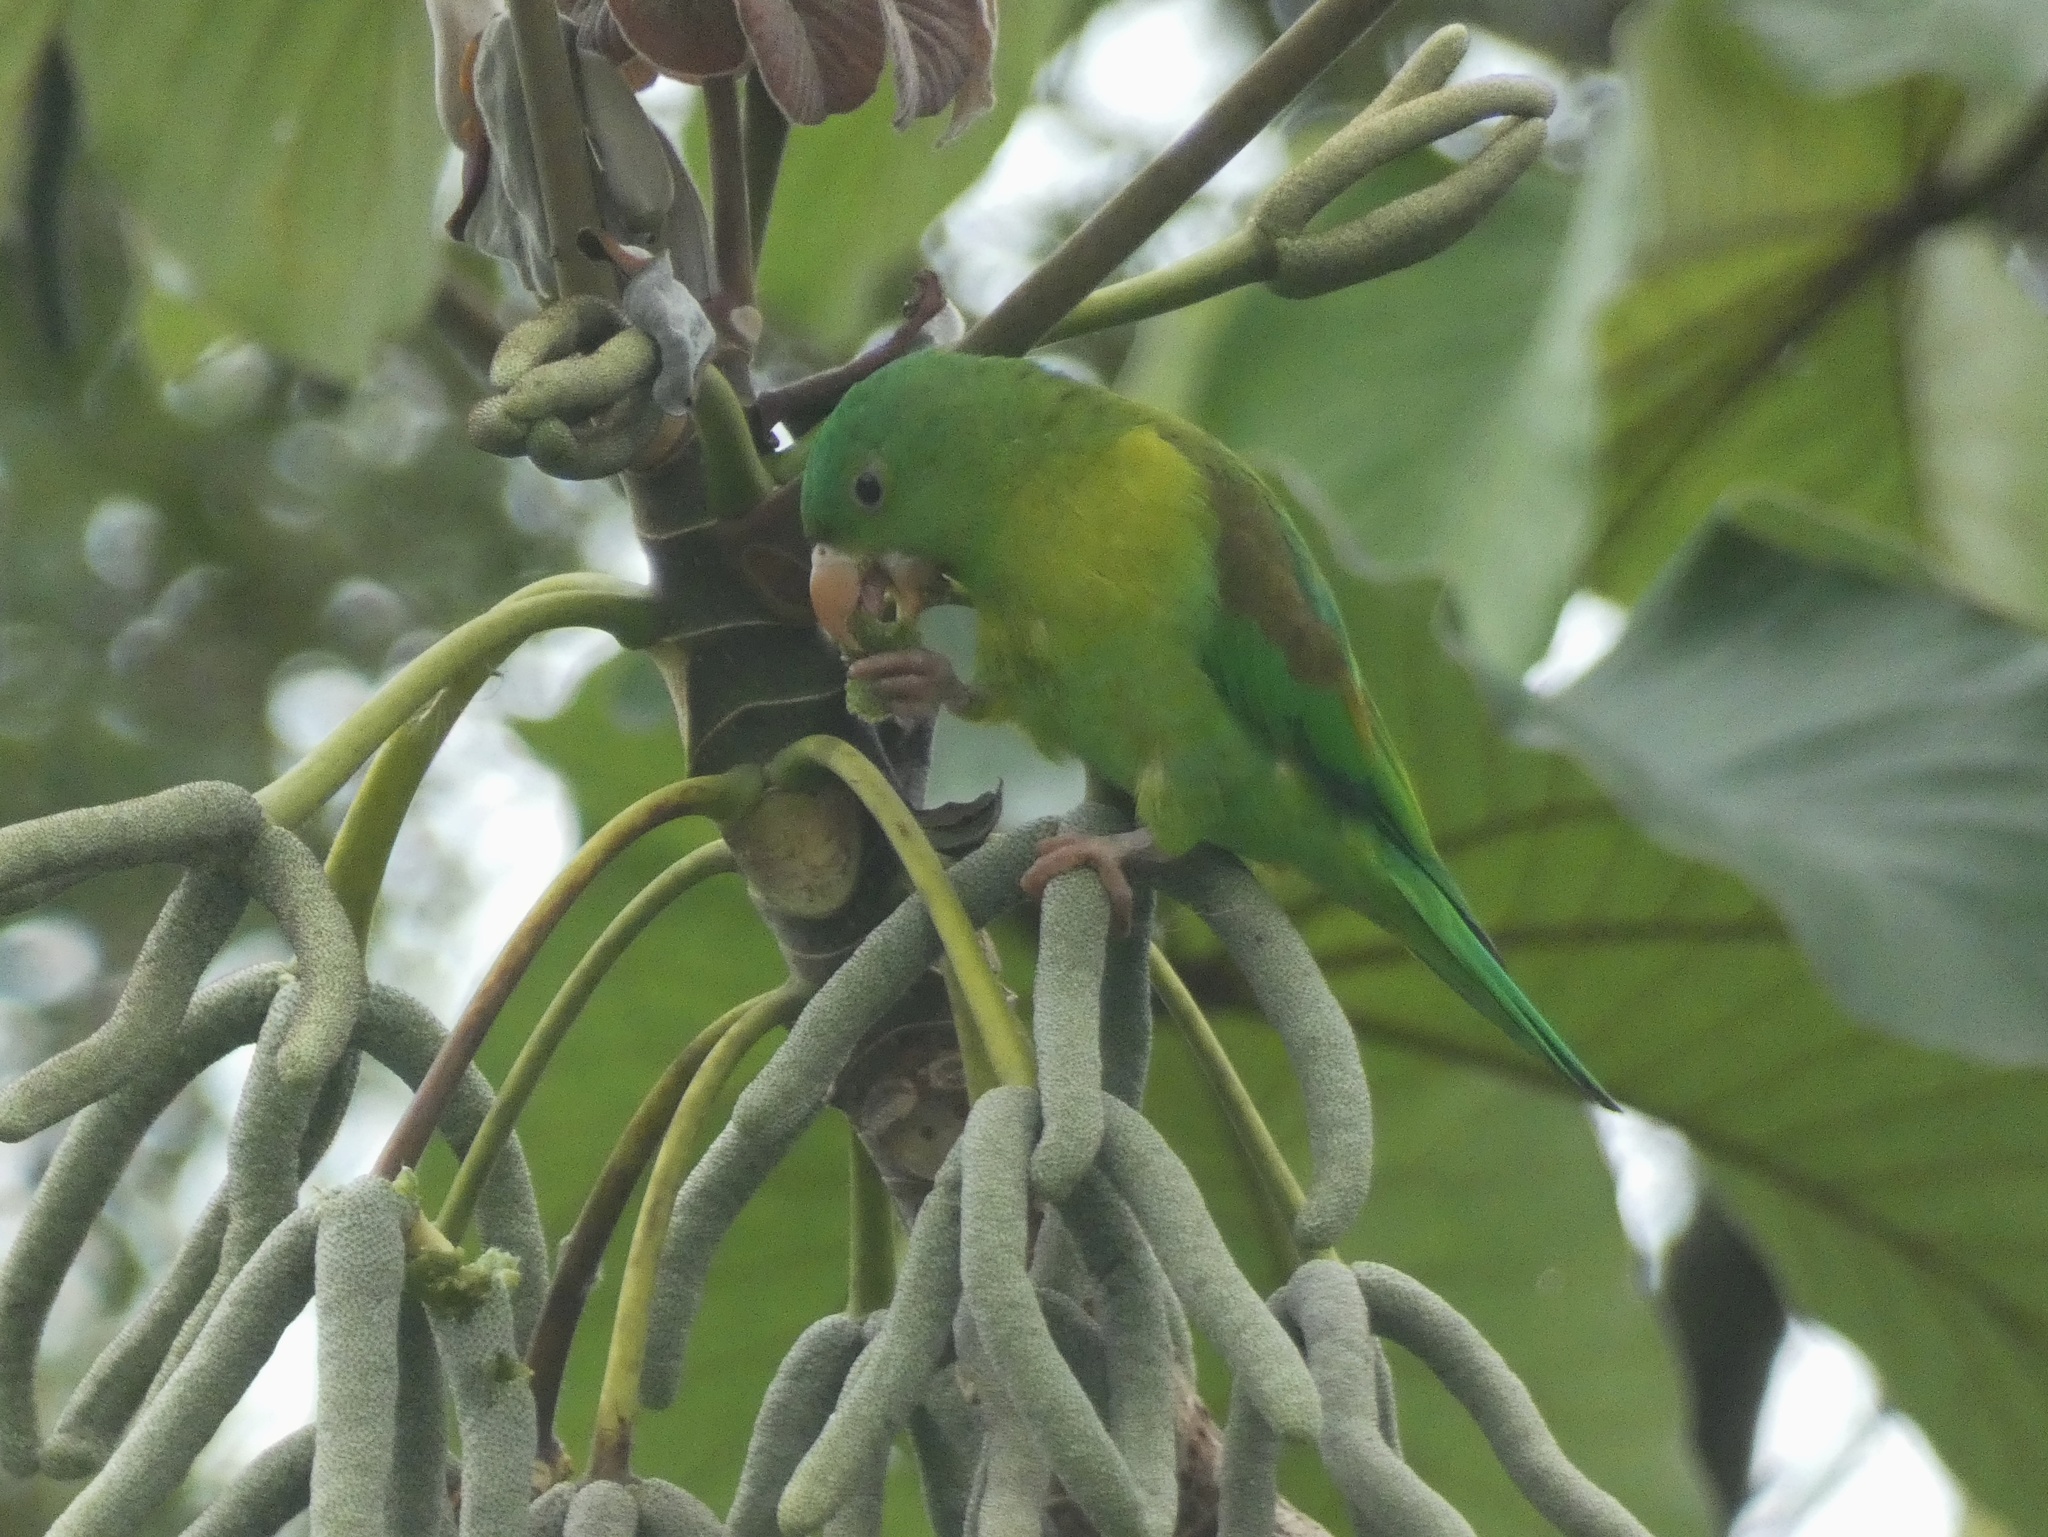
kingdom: Animalia
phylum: Chordata
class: Aves
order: Psittaciformes
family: Psittacidae
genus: Brotogeris
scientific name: Brotogeris jugularis
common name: Orange-chinned parakeet
